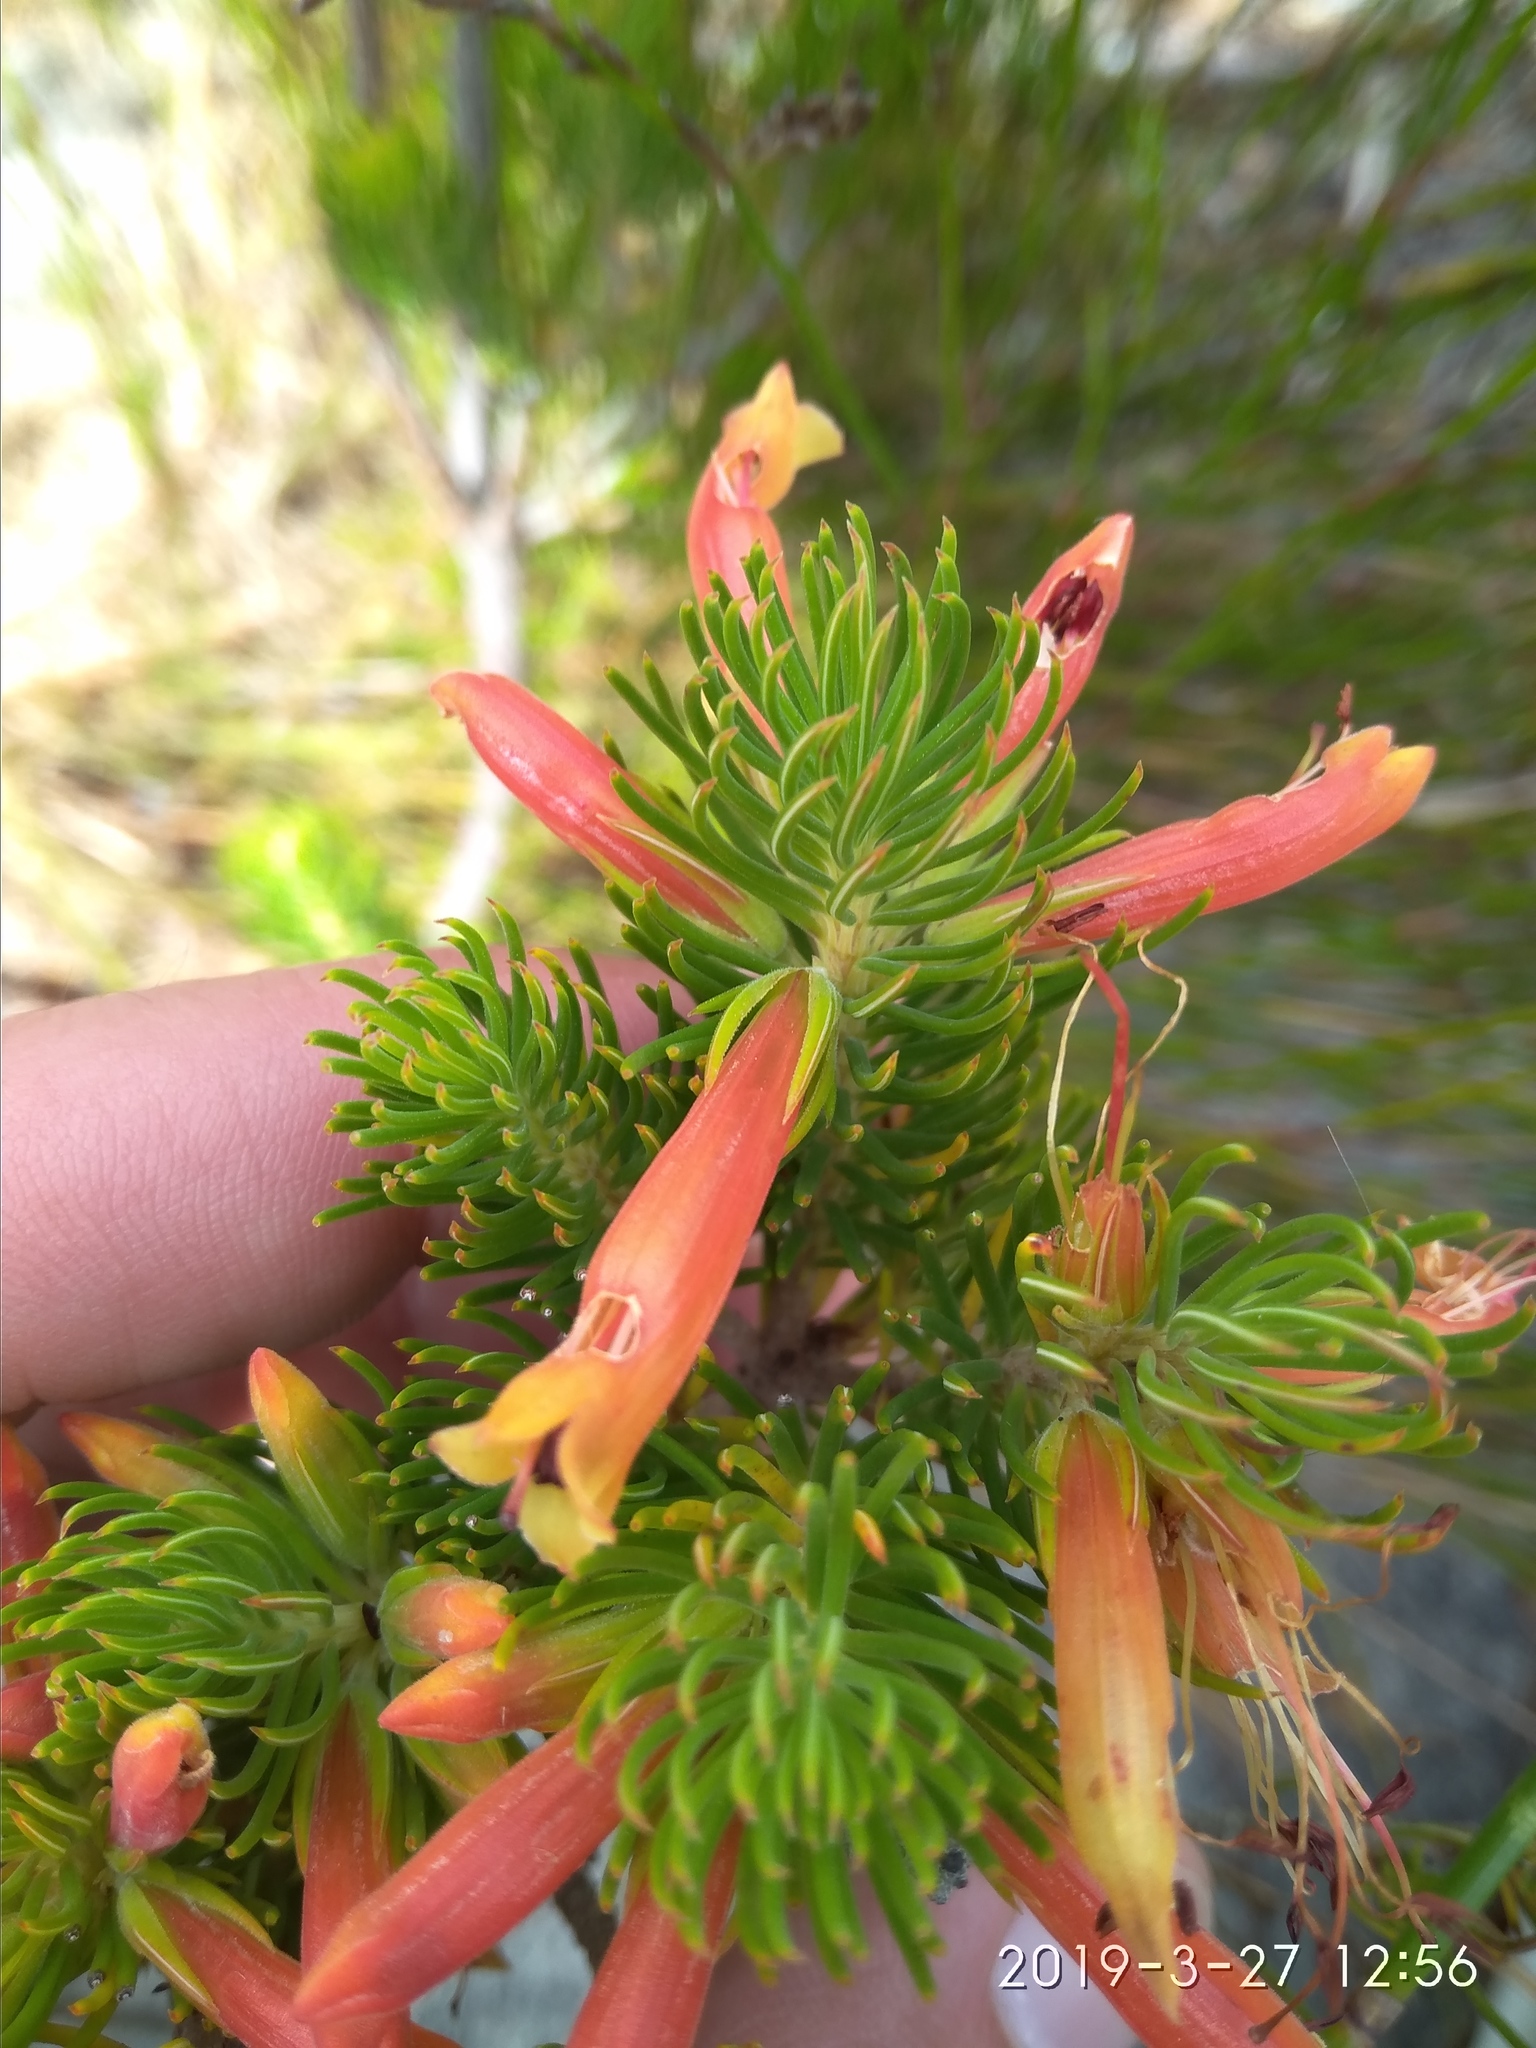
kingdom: Plantae
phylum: Tracheophyta
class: Magnoliopsida
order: Ericales
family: Ericaceae
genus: Erica
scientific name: Erica grandiflora
